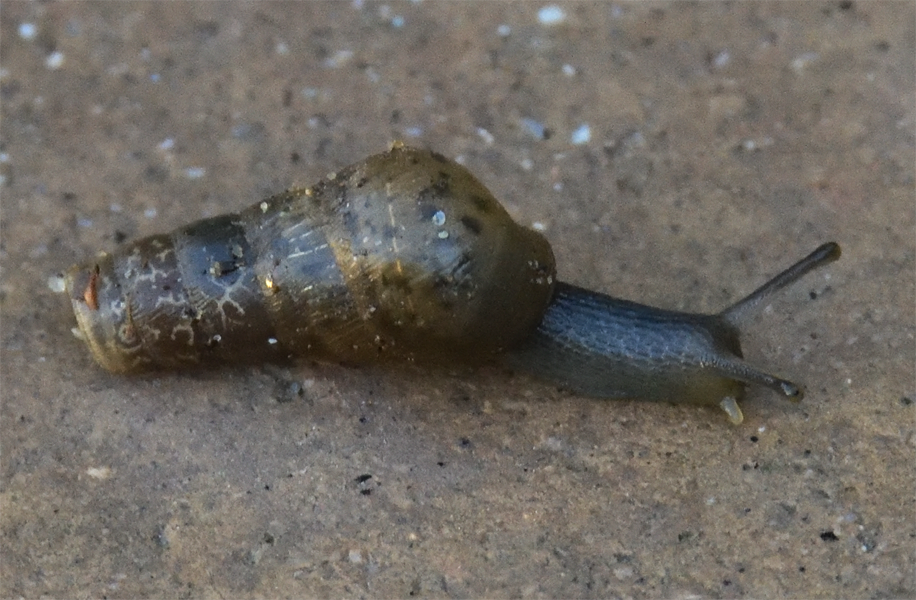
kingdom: Animalia
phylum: Mollusca
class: Gastropoda
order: Stylommatophora
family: Achatinidae
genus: Rumina
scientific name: Rumina decollata
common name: Decollate snail
